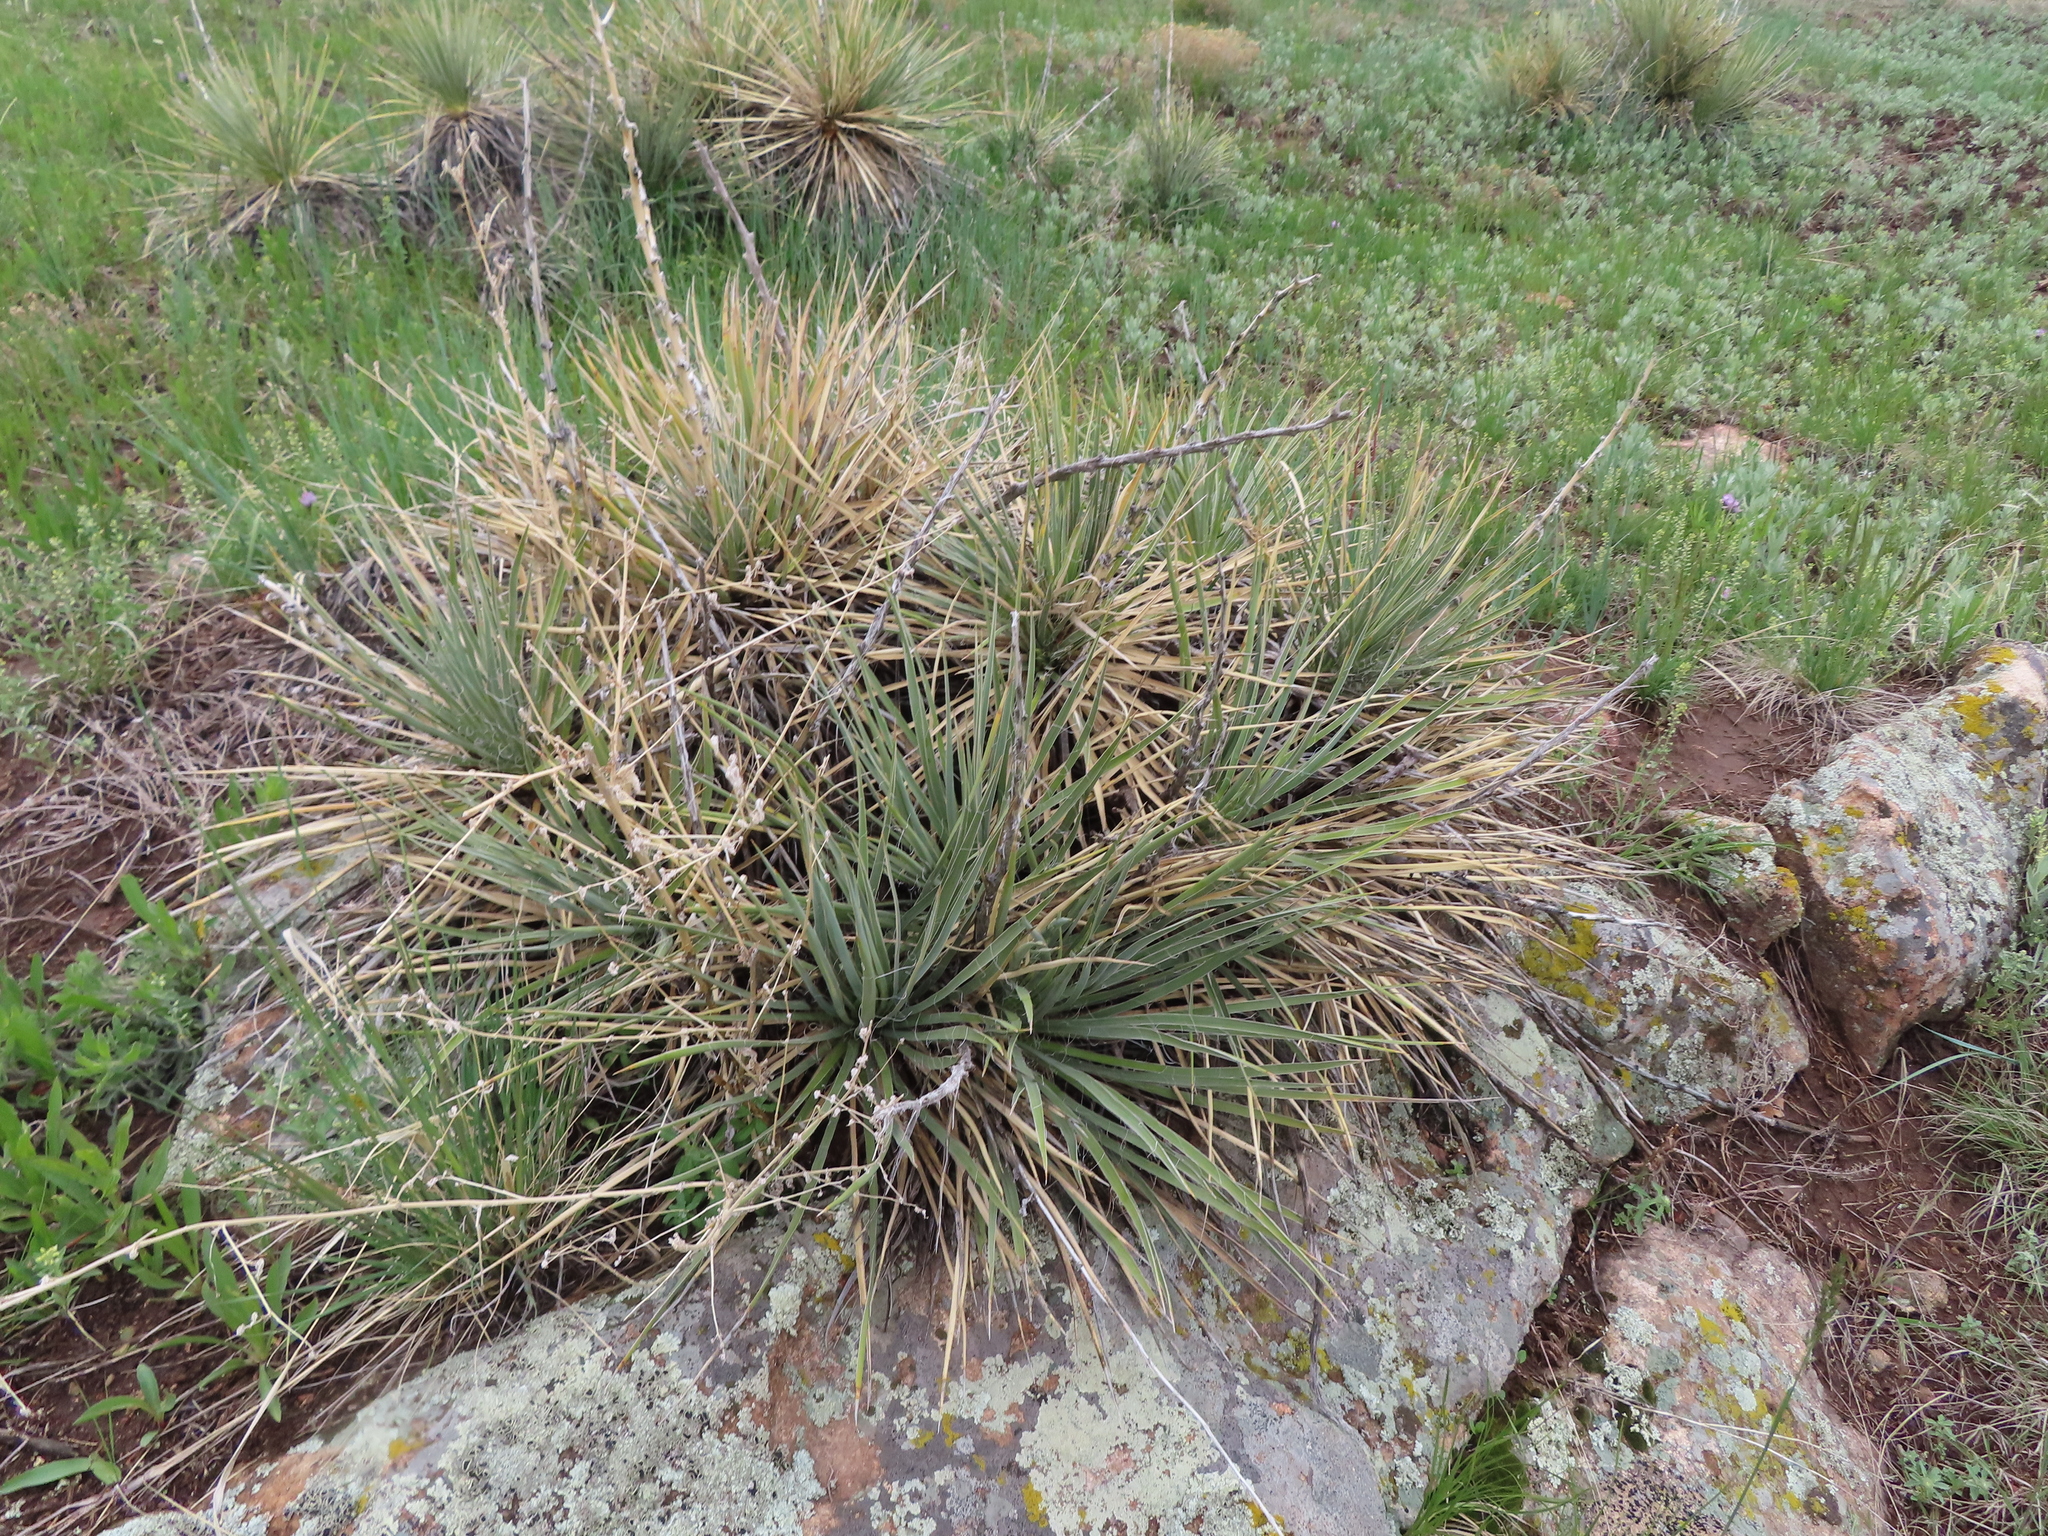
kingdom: Plantae
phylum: Tracheophyta
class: Liliopsida
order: Asparagales
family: Asparagaceae
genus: Yucca
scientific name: Yucca glauca
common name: Great plains yucca
